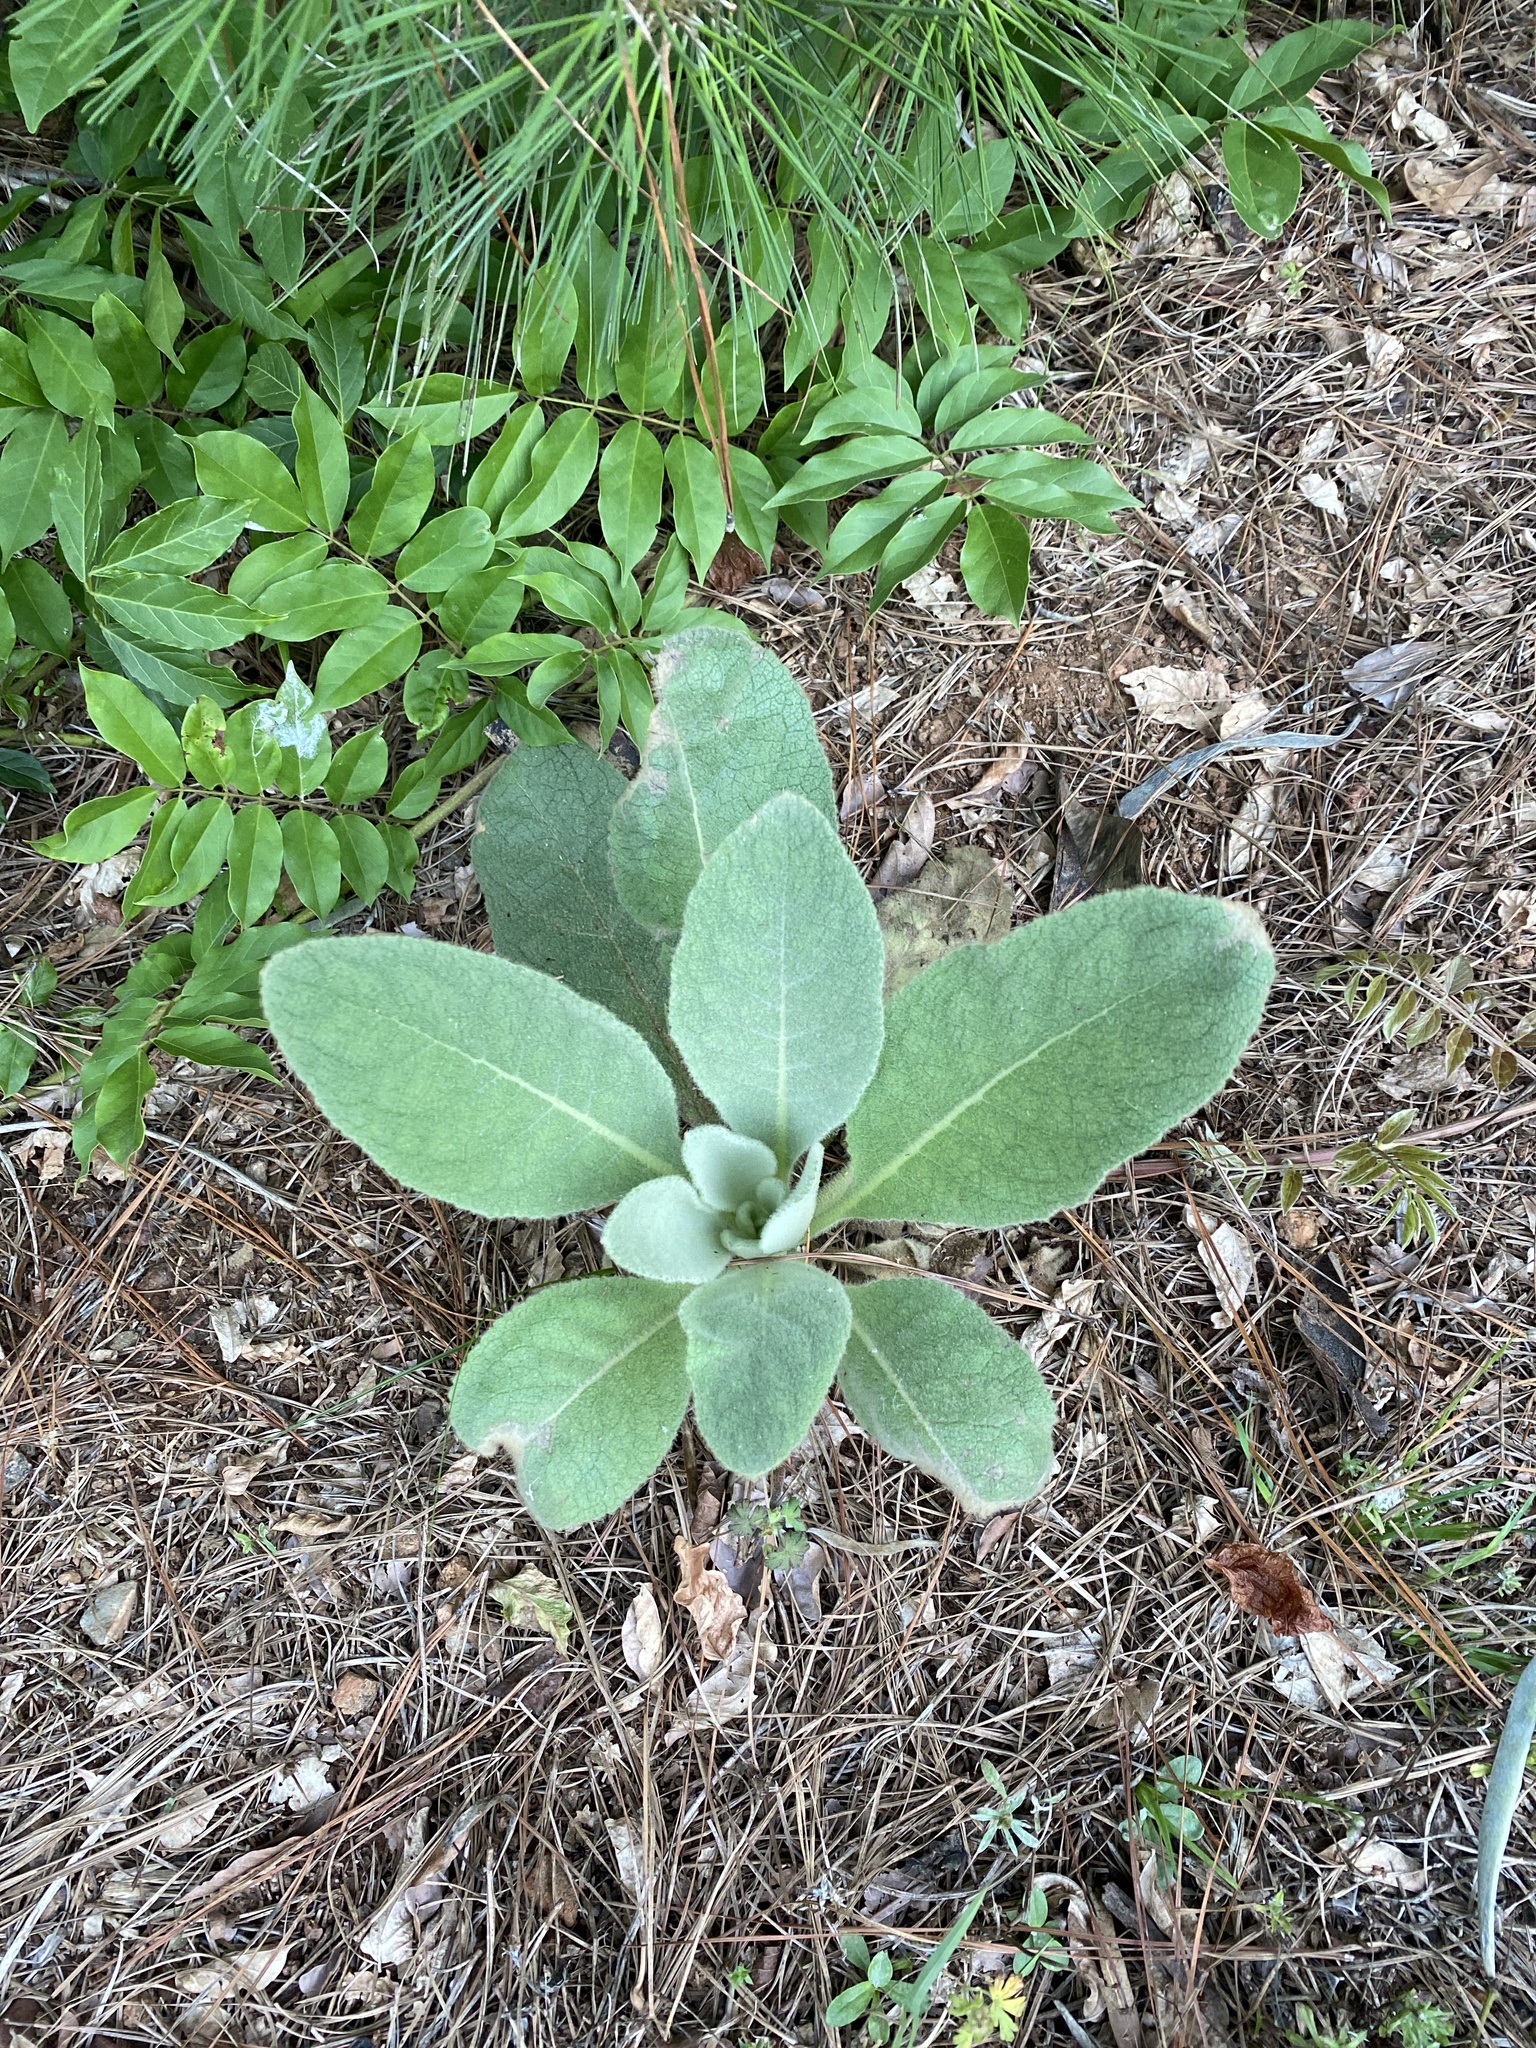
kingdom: Plantae
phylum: Tracheophyta
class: Magnoliopsida
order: Lamiales
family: Scrophulariaceae
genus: Verbascum
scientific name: Verbascum thapsus
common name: Common mullein
